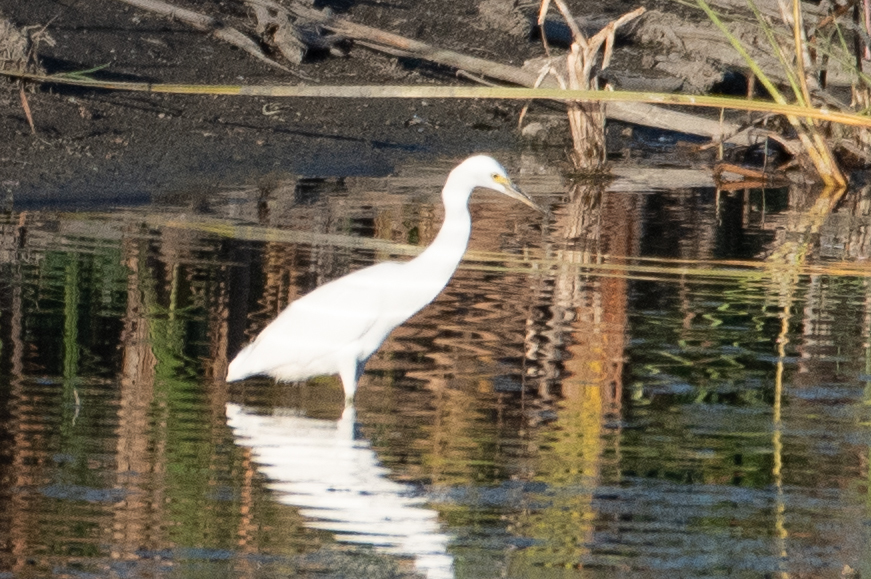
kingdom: Animalia
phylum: Chordata
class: Aves
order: Pelecaniformes
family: Ardeidae
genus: Egretta
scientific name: Egretta thula
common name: Snowy egret
